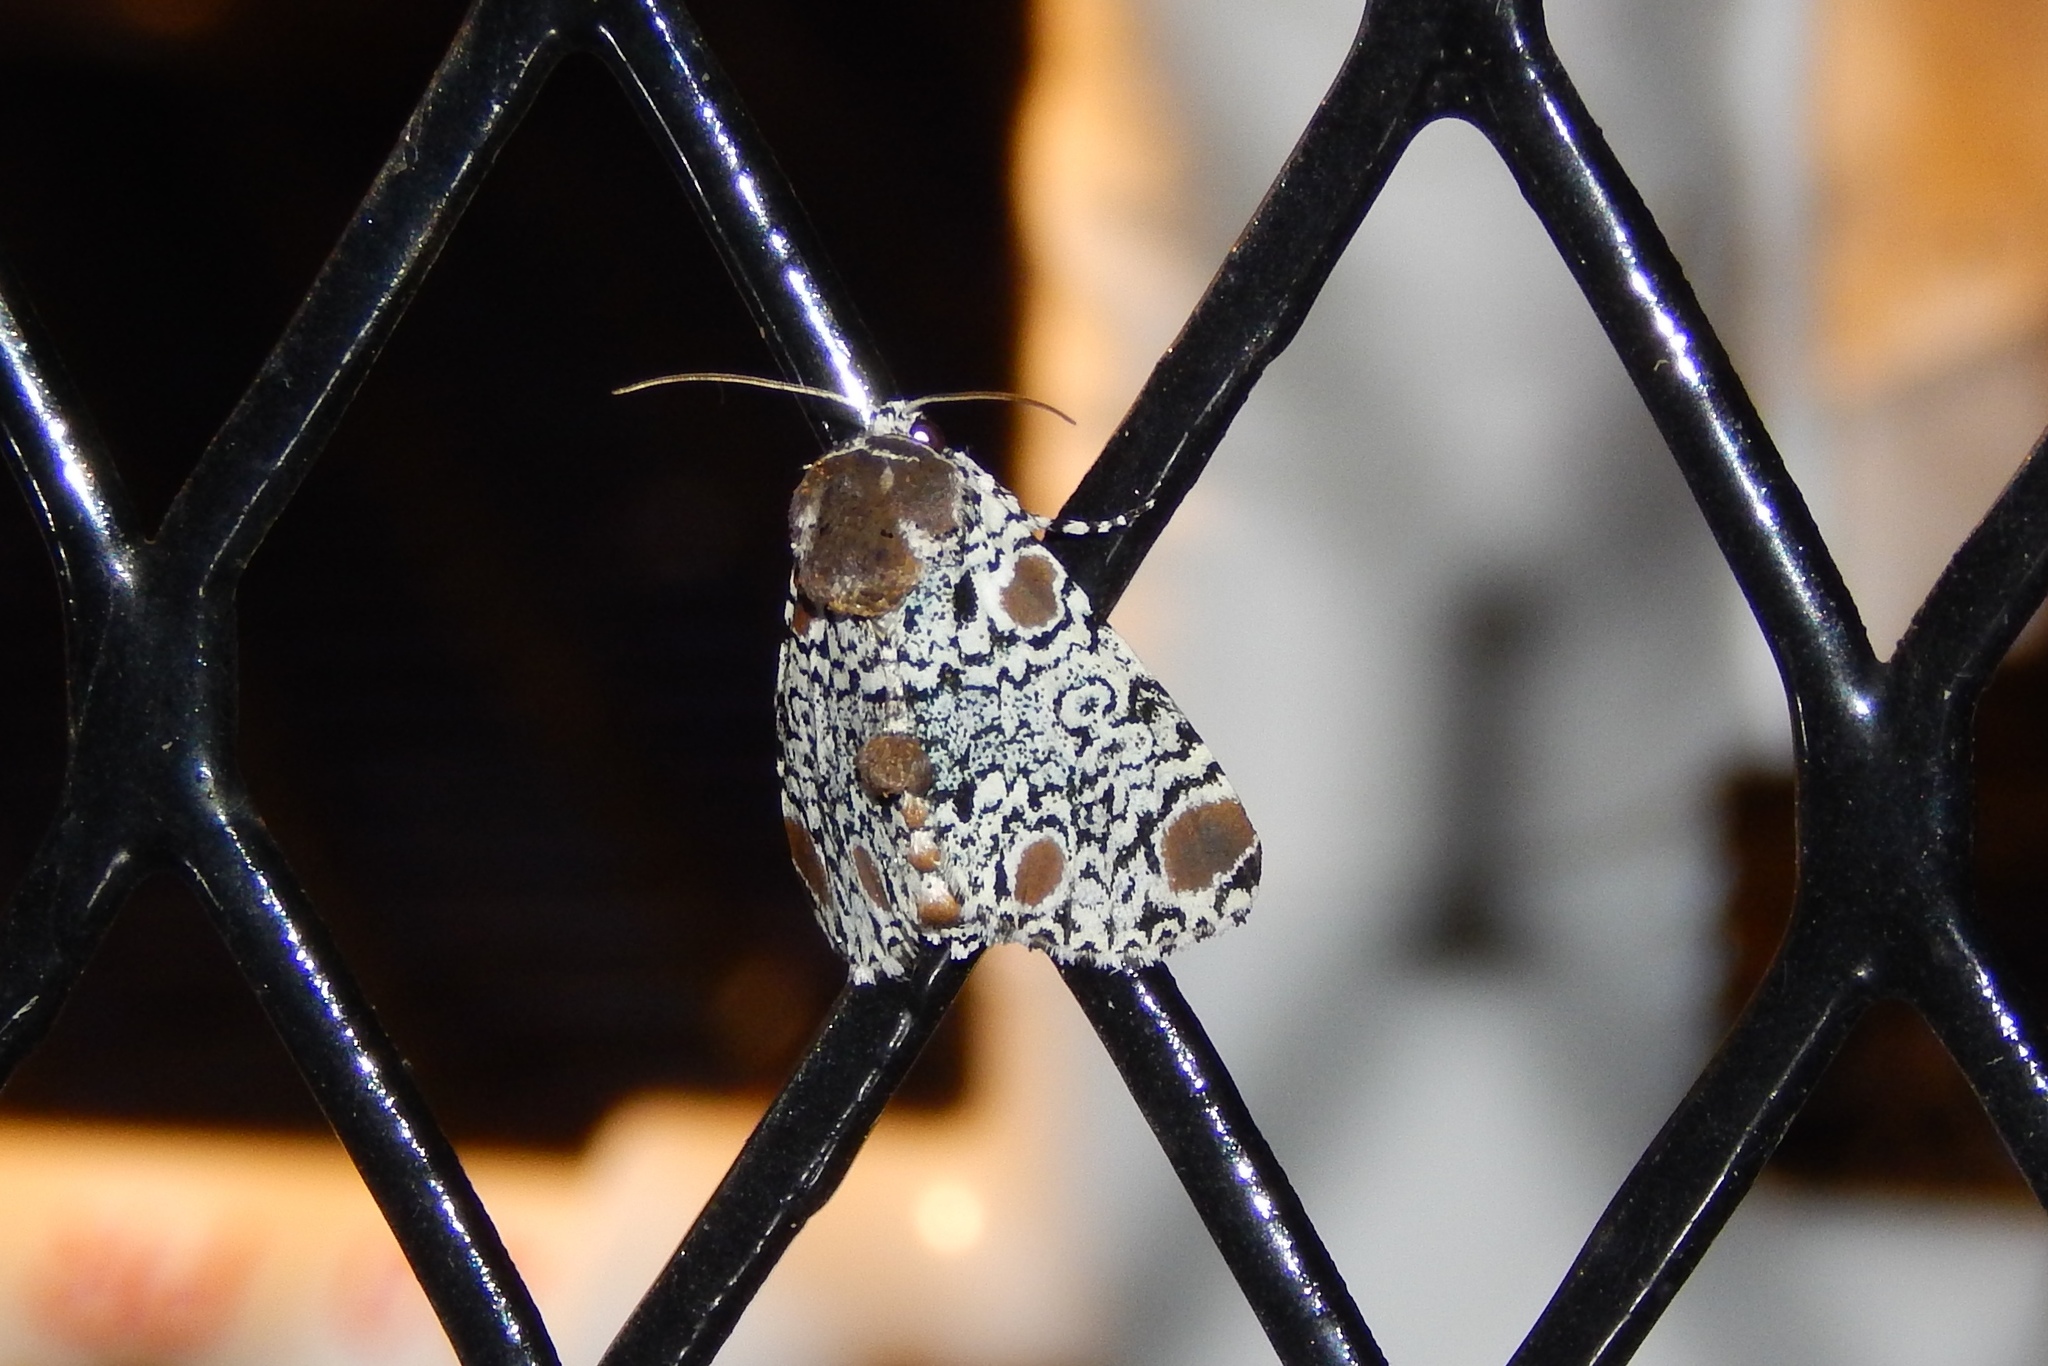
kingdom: Animalia
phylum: Arthropoda
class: Insecta
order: Lepidoptera
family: Noctuidae
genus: Harrisimemna
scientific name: Harrisimemna trisignata
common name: Harris threespot
